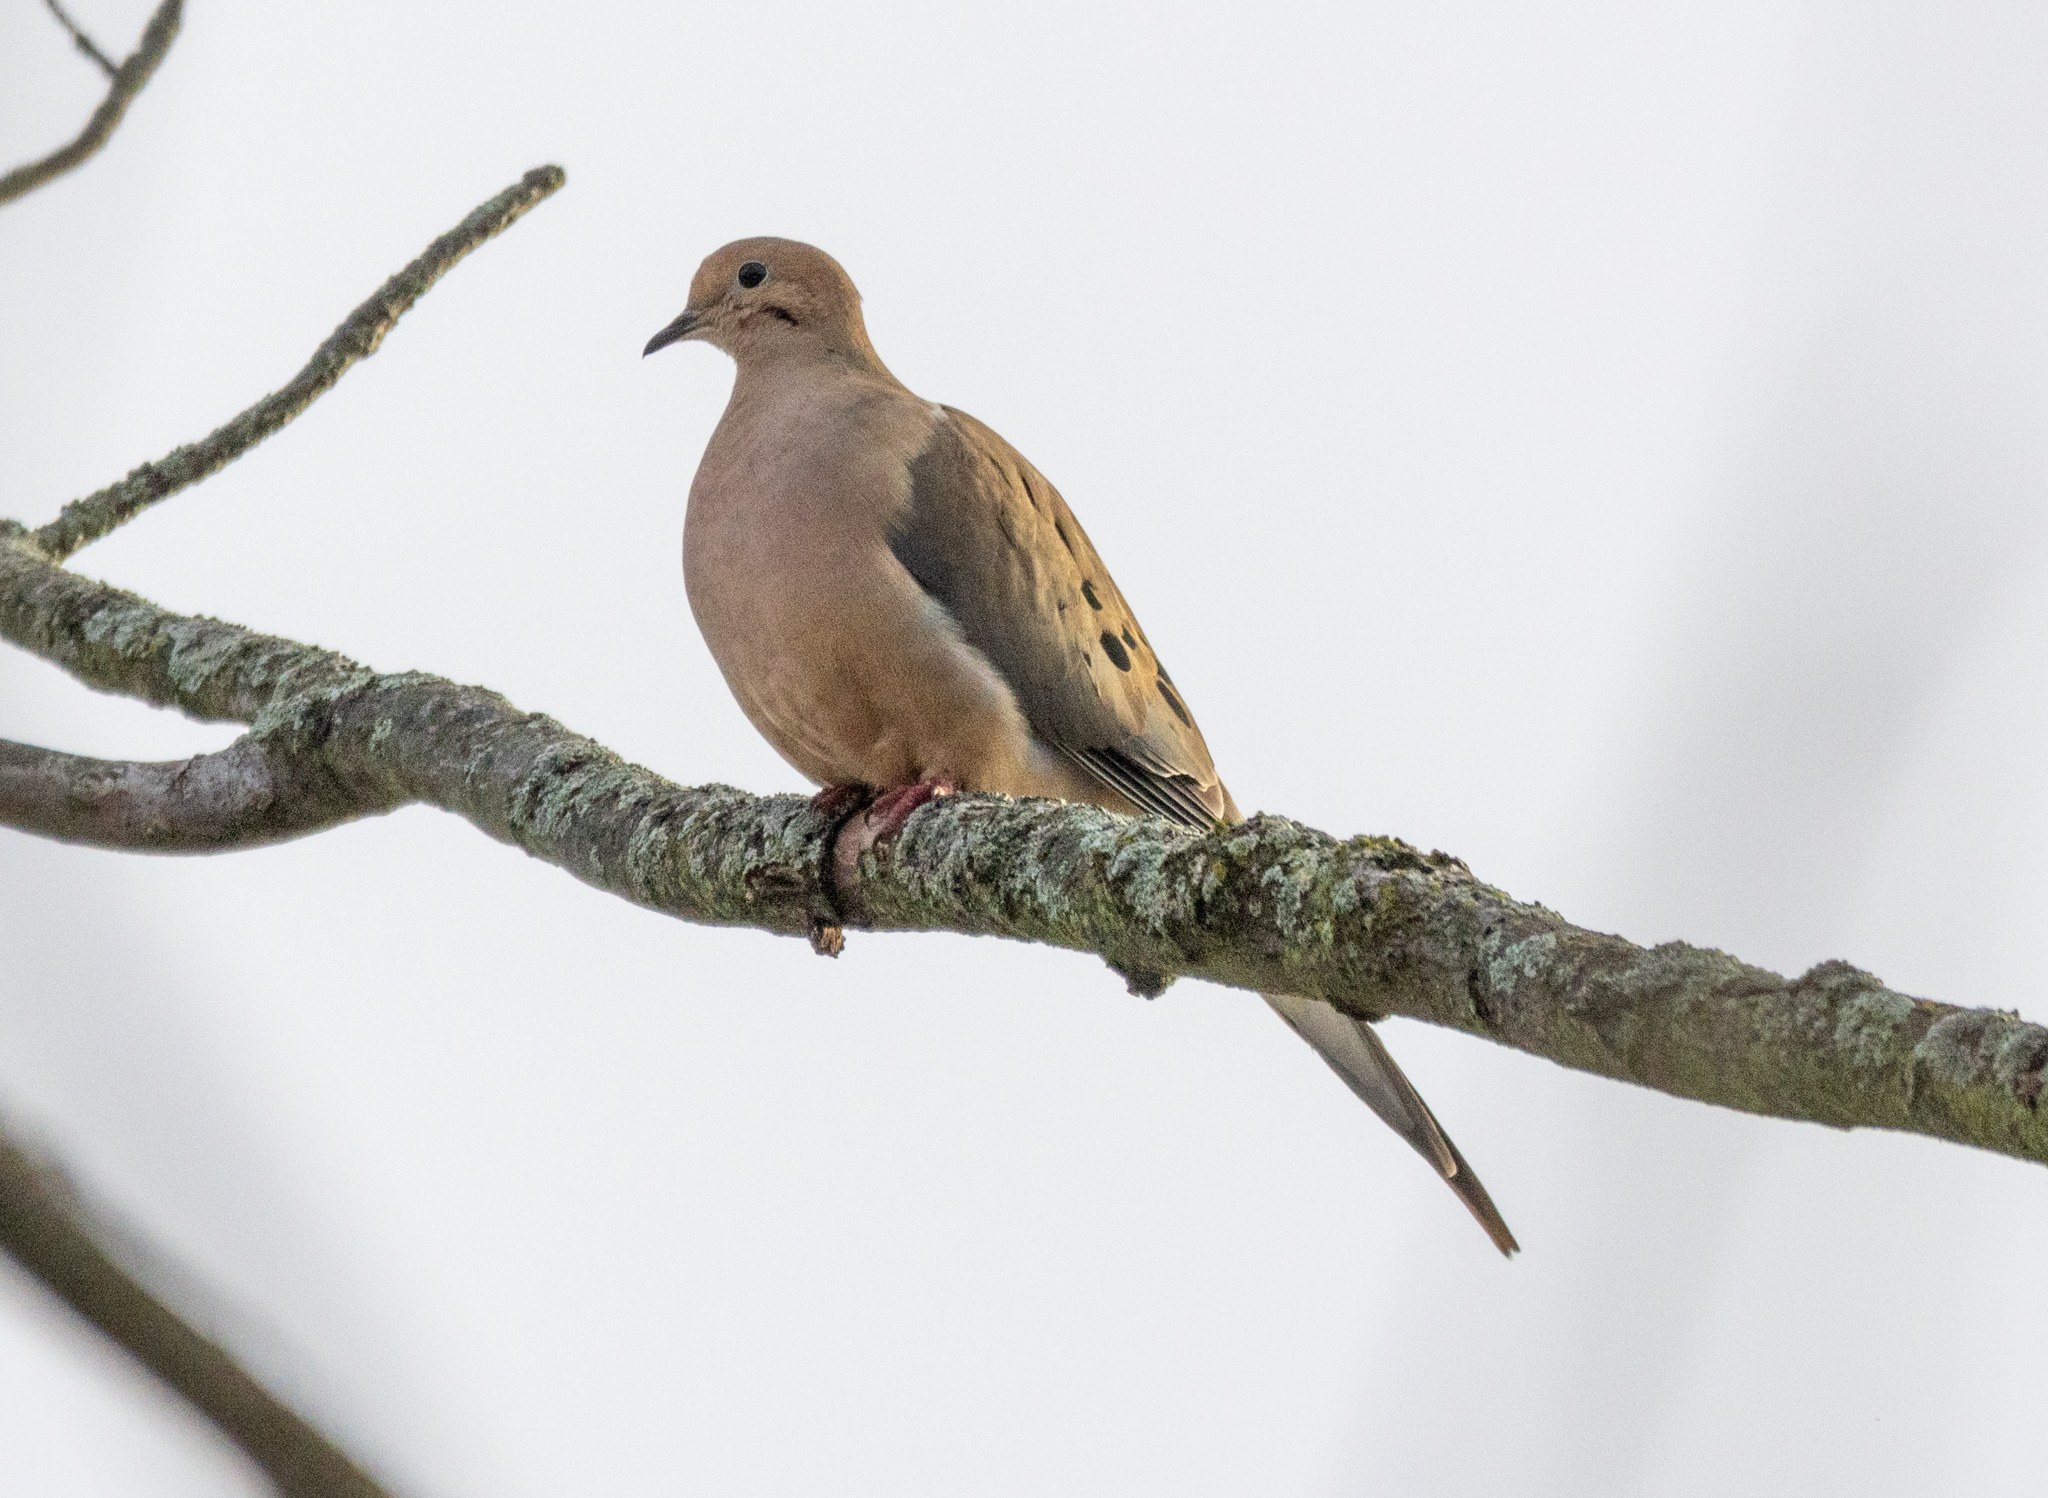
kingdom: Animalia
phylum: Chordata
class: Aves
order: Columbiformes
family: Columbidae
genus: Zenaida
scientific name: Zenaida macroura
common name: Mourning dove
